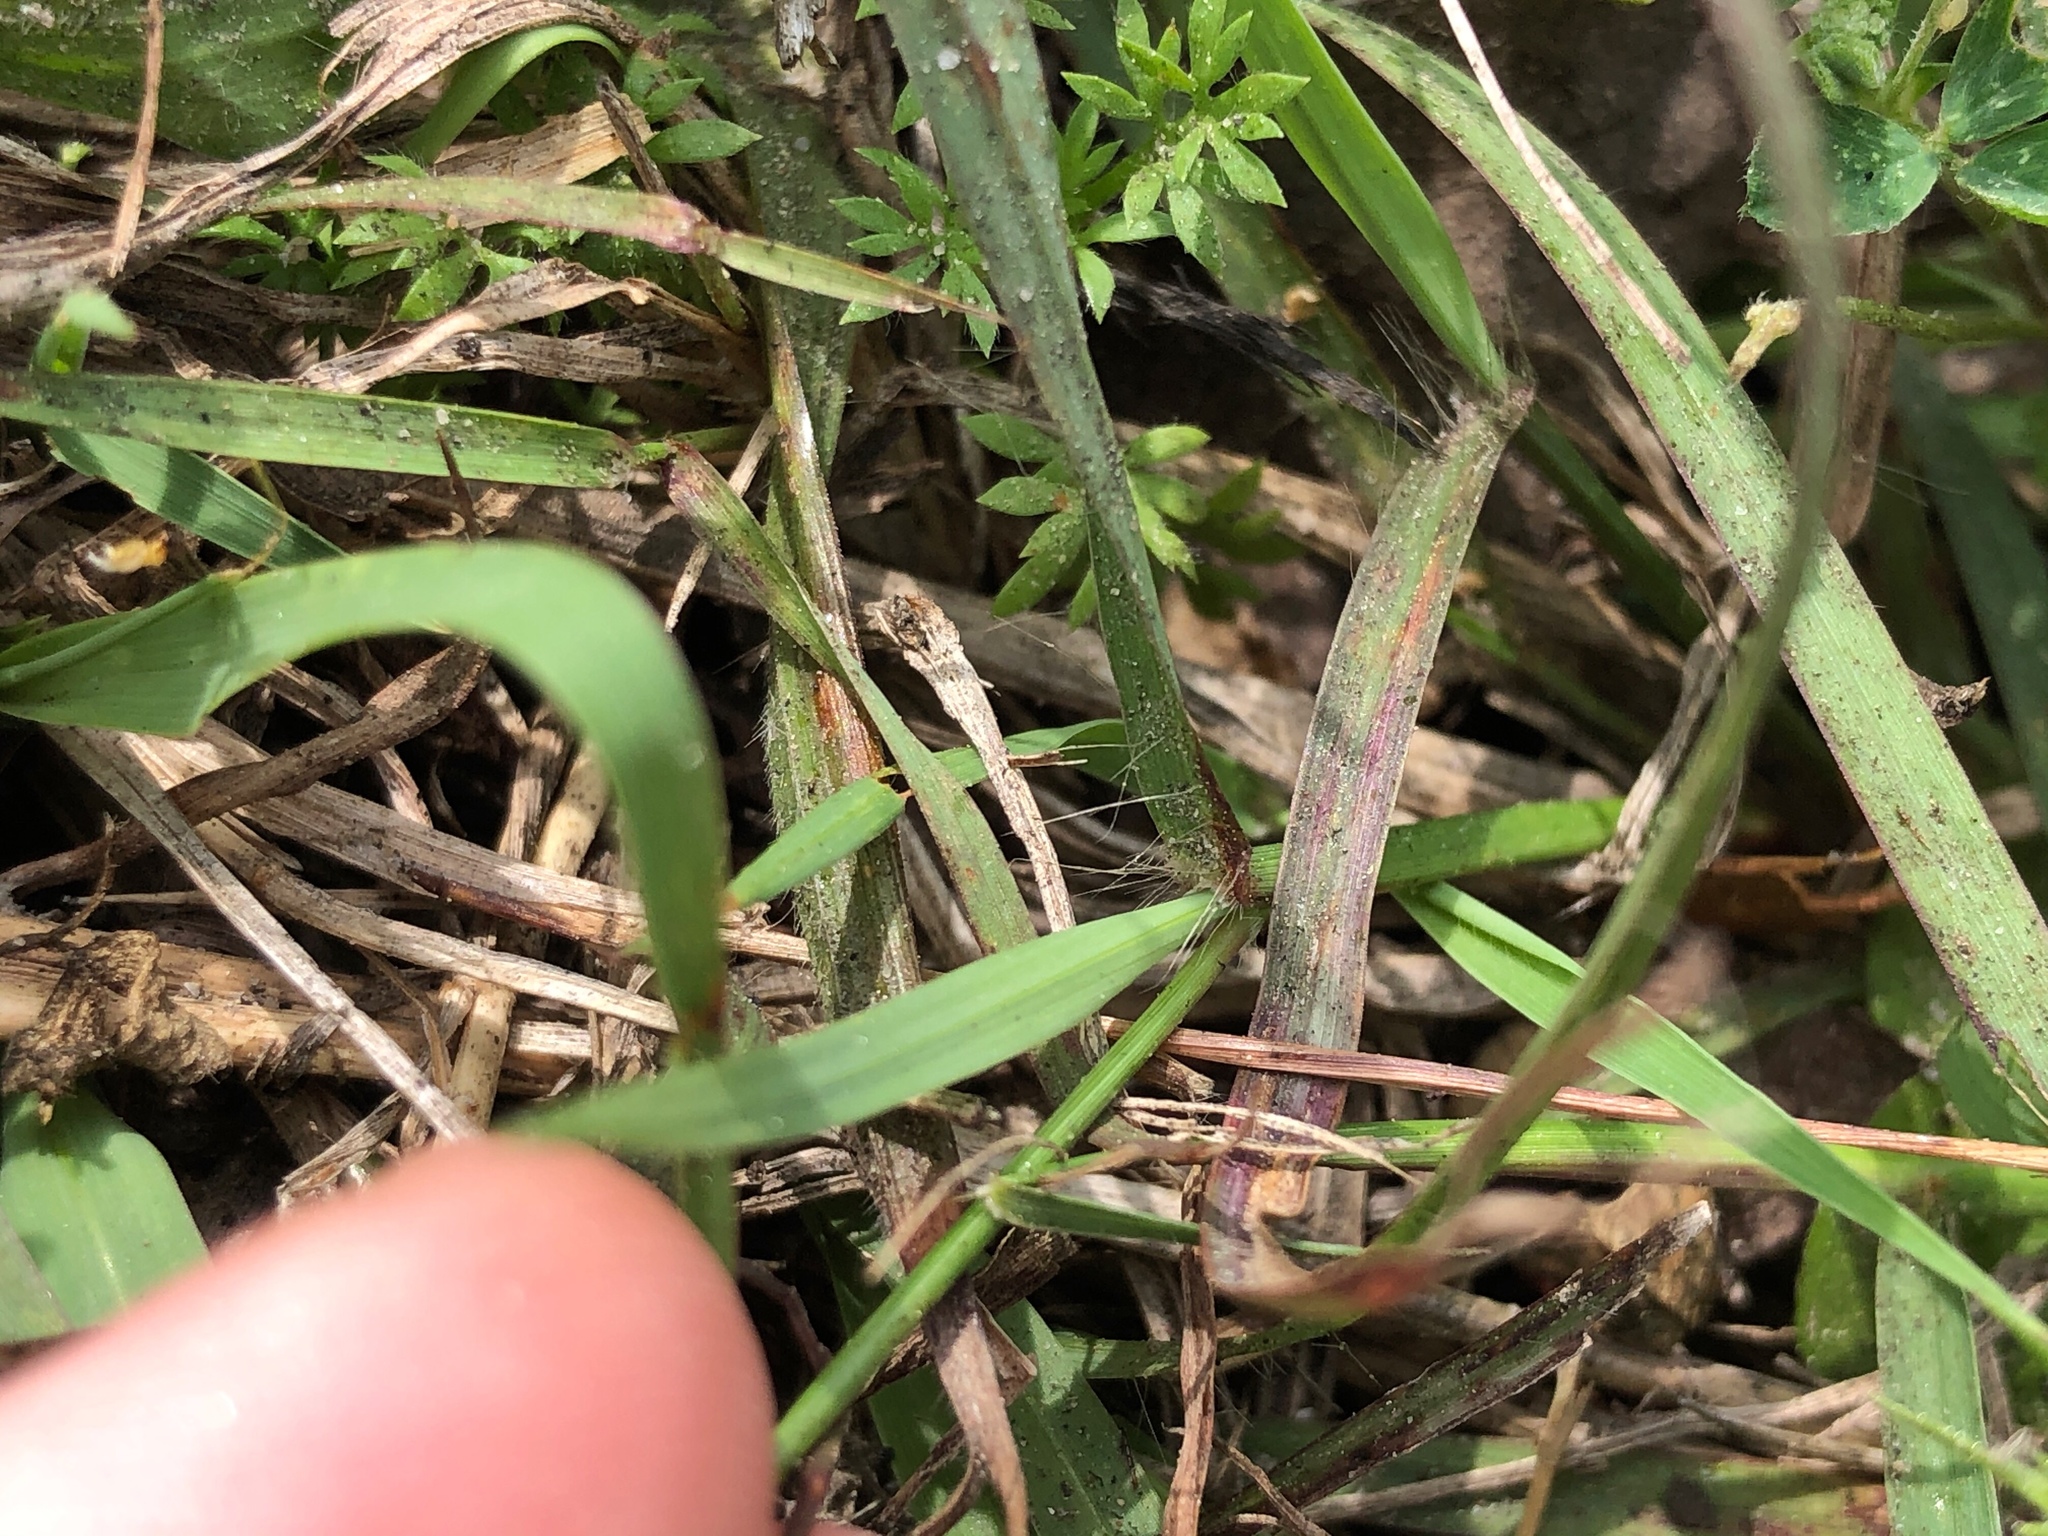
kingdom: Plantae
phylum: Tracheophyta
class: Liliopsida
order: Poales
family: Poaceae
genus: Bothriochloa
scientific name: Bothriochloa ischaemum
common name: Yellow bluestem
